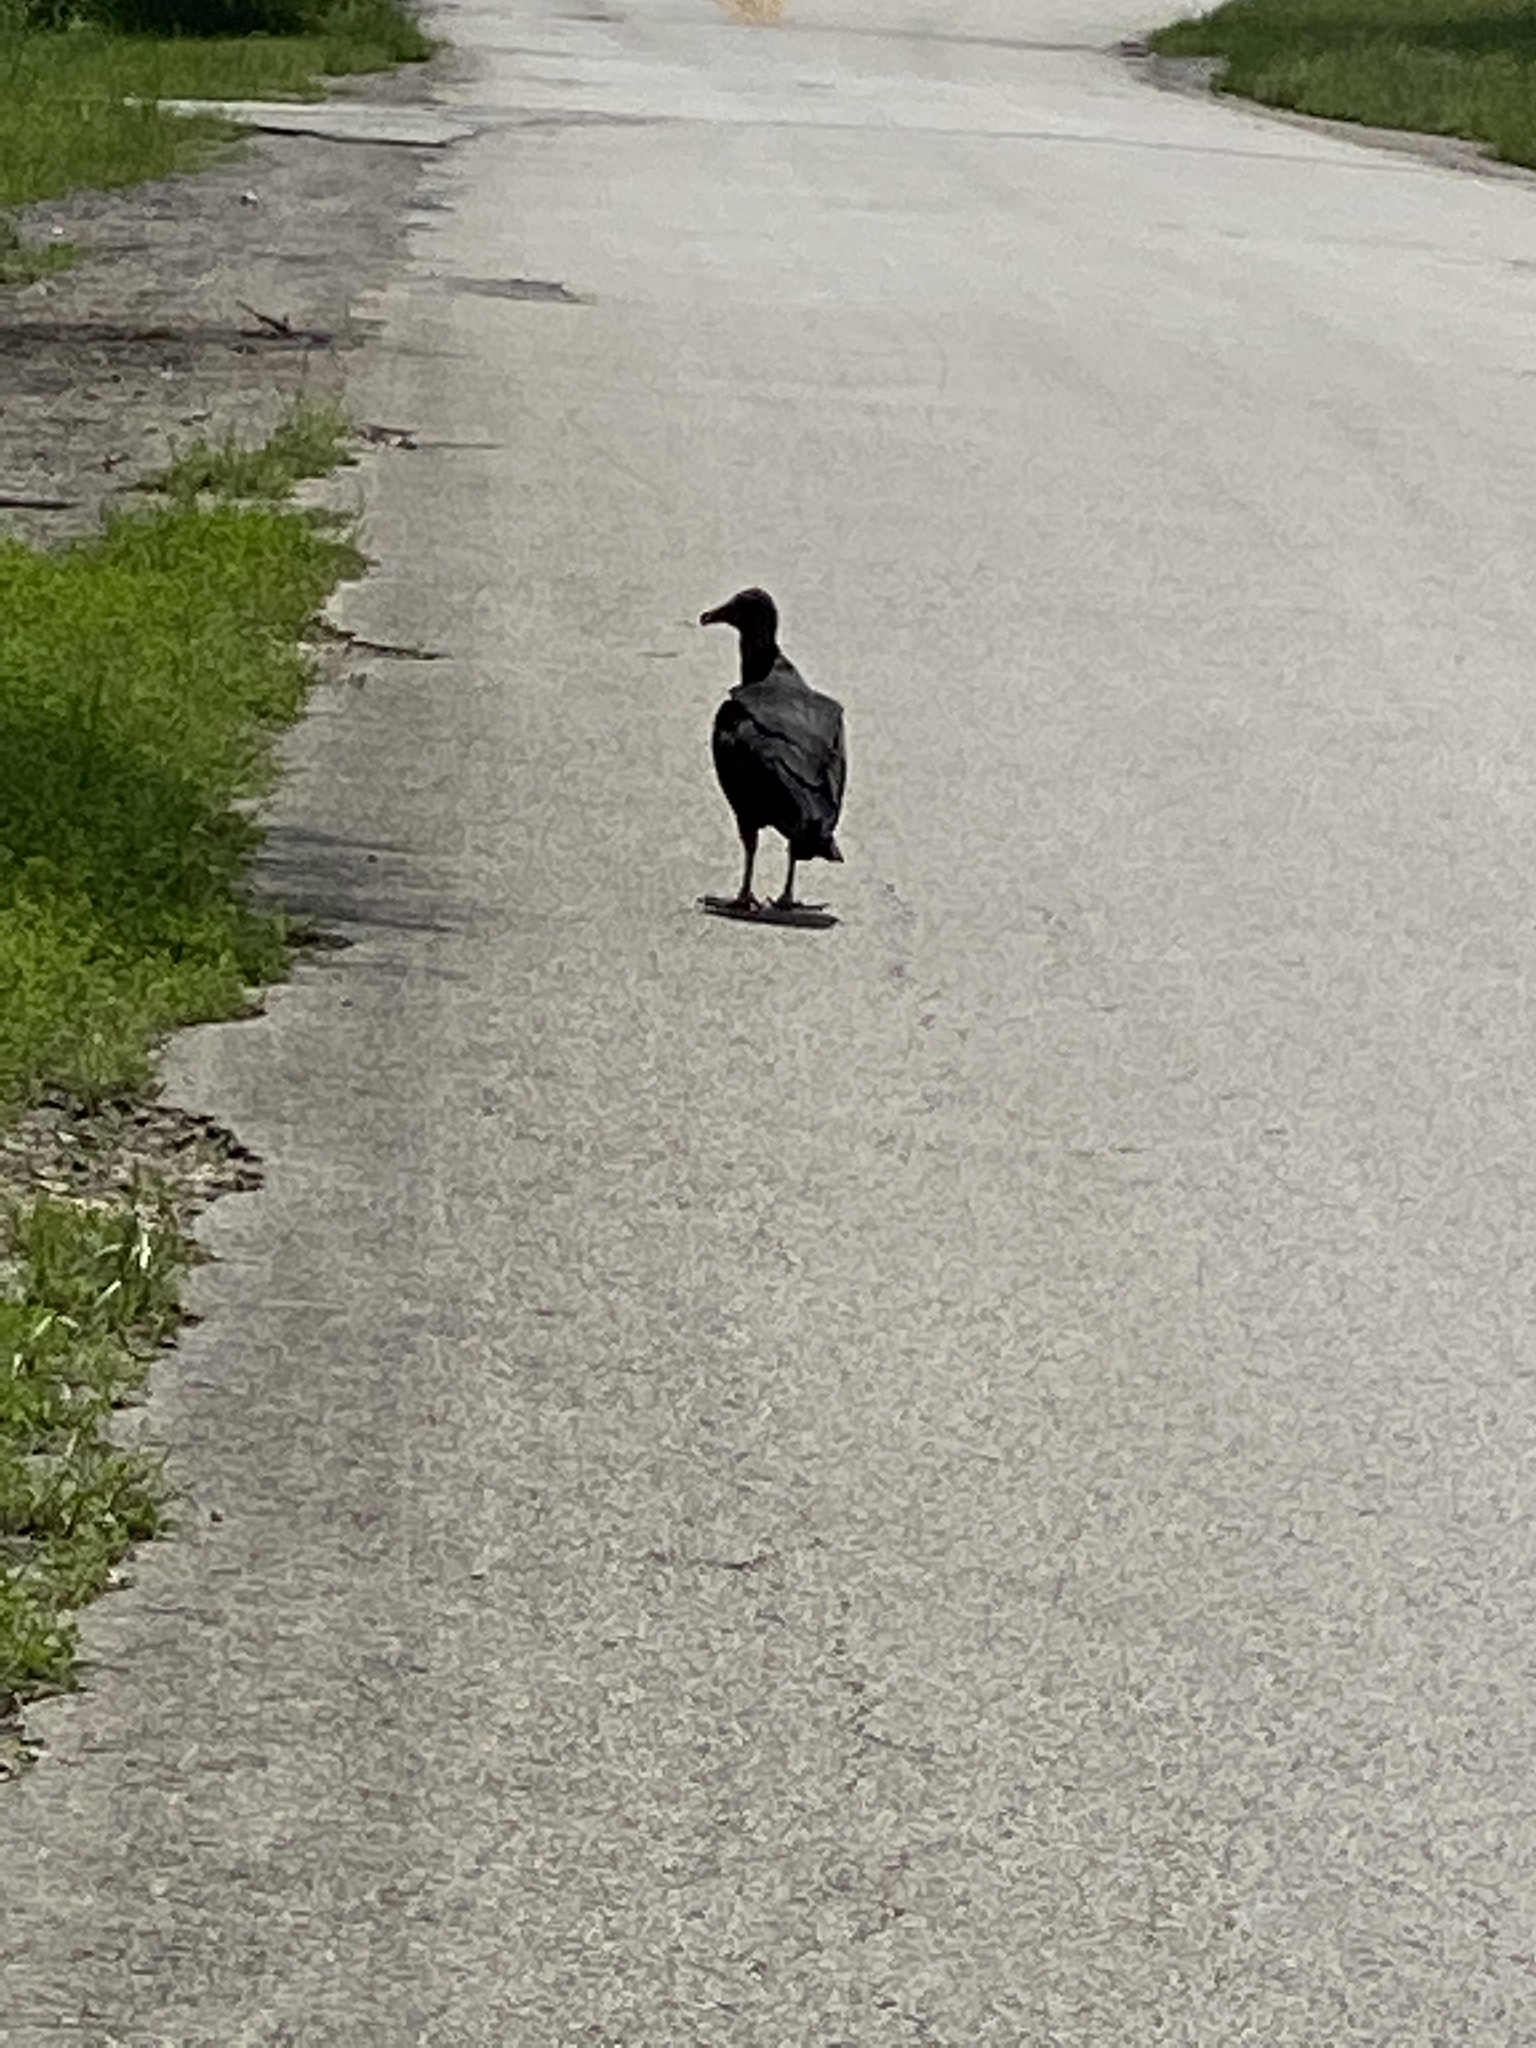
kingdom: Animalia
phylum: Chordata
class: Aves
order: Accipitriformes
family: Cathartidae
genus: Coragyps
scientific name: Coragyps atratus
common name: Black vulture
